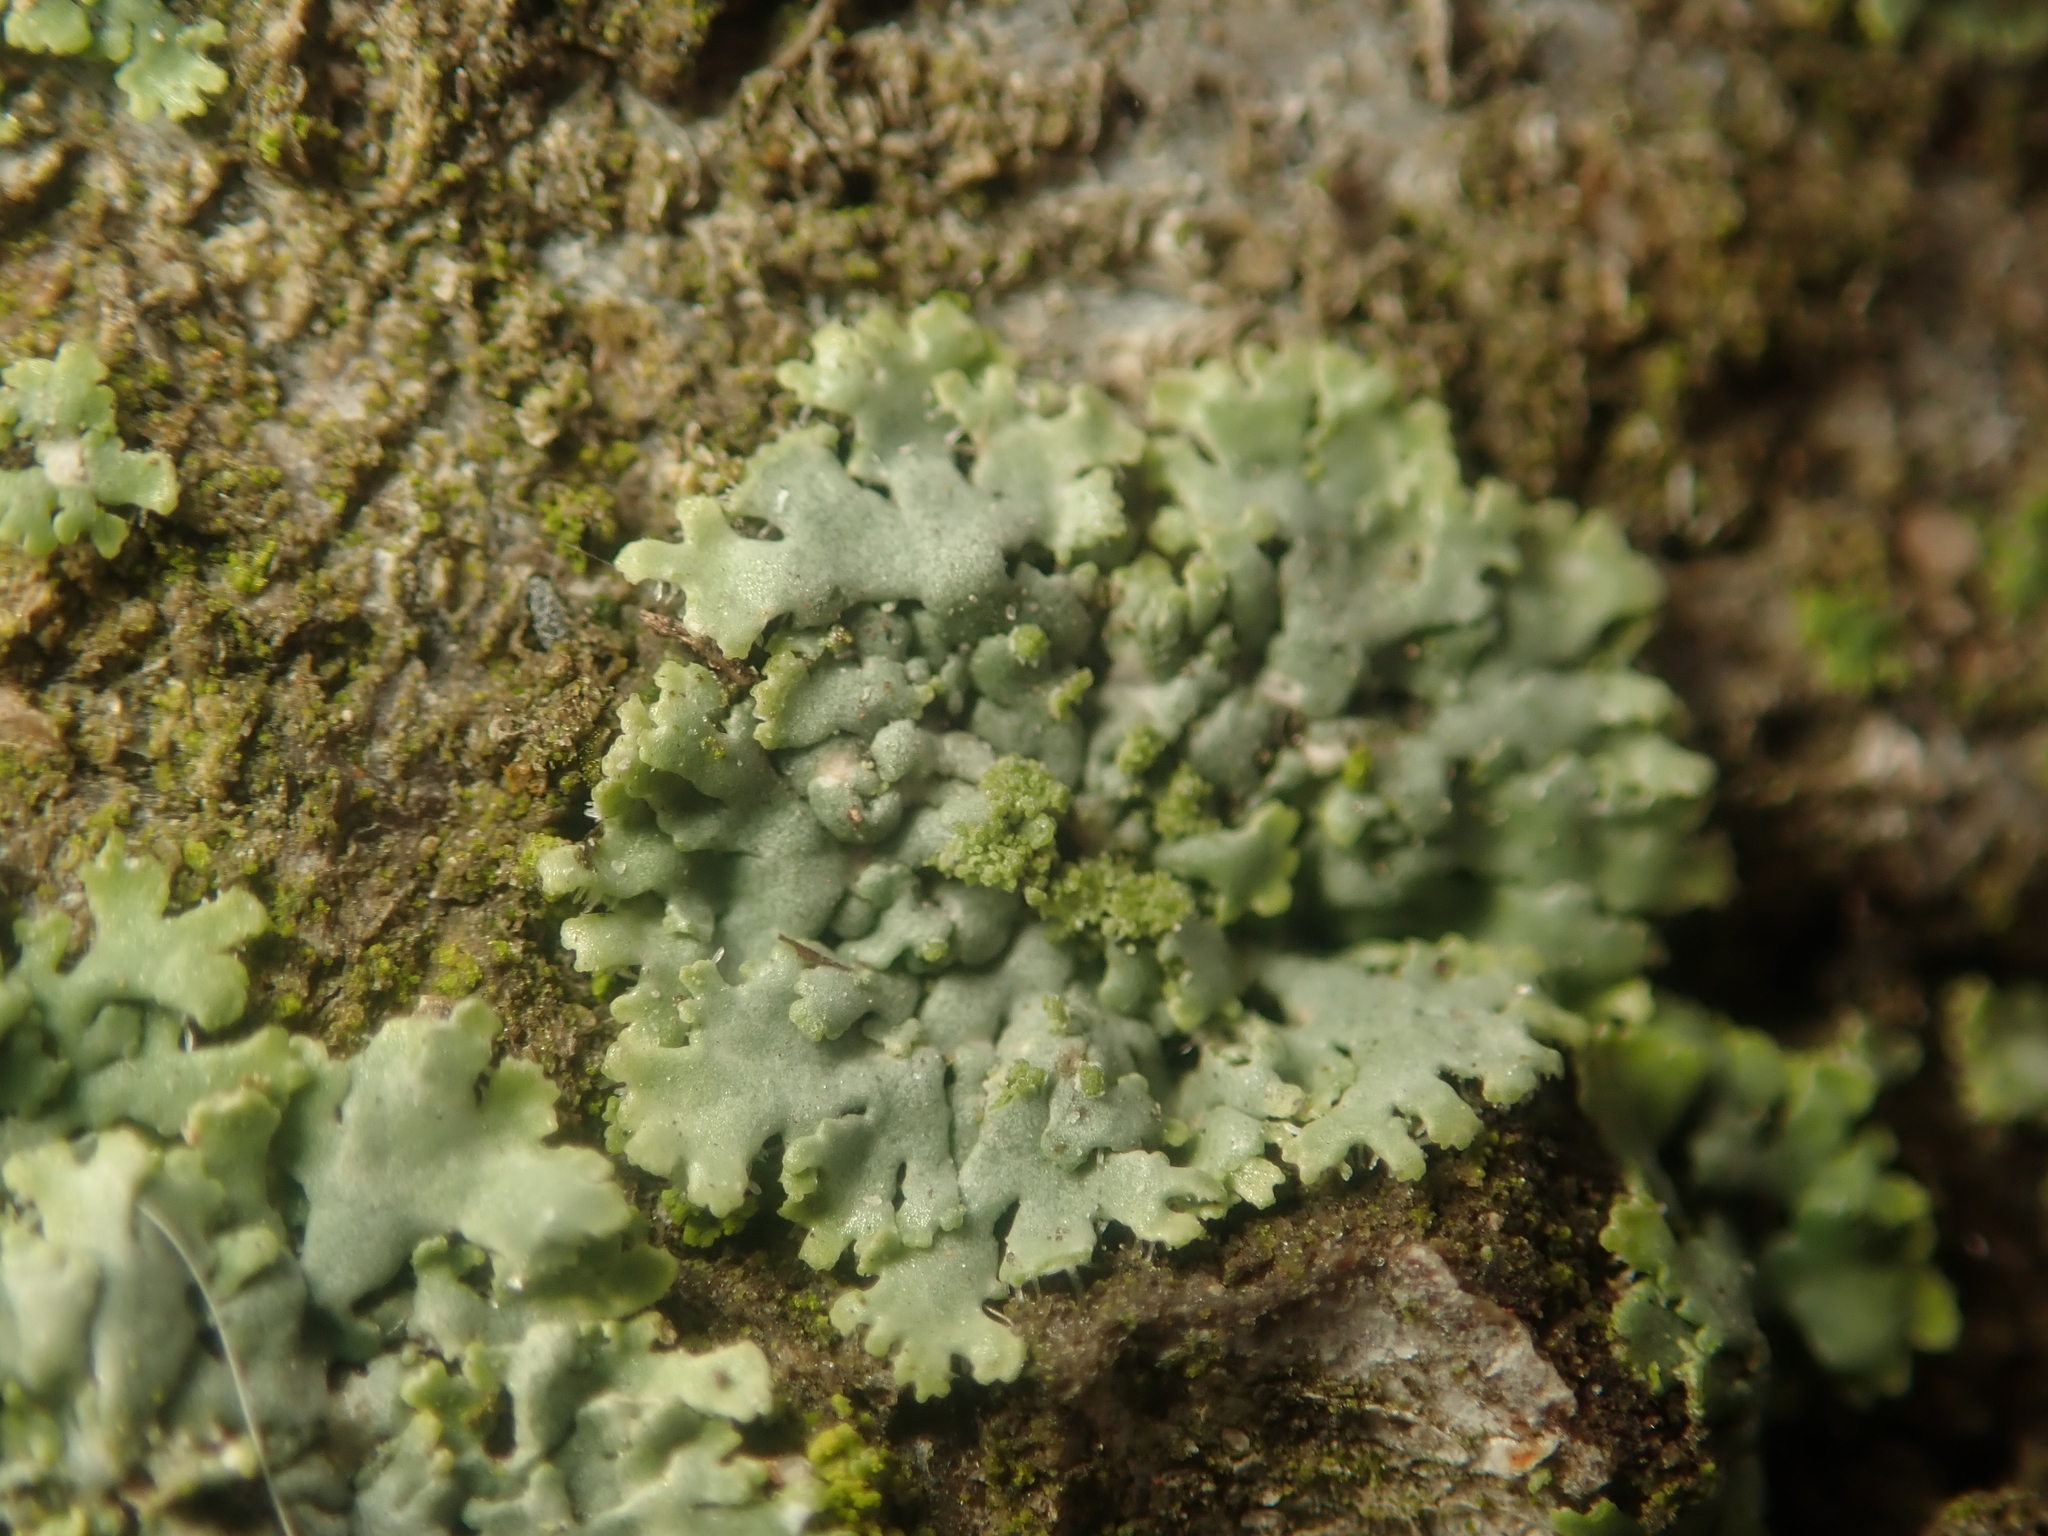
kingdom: Fungi
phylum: Ascomycota
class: Lecanoromycetes
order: Caliciales
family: Physciaceae
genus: Phaeophyscia
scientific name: Phaeophyscia orbicularis
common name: Mealy shadow lichen
